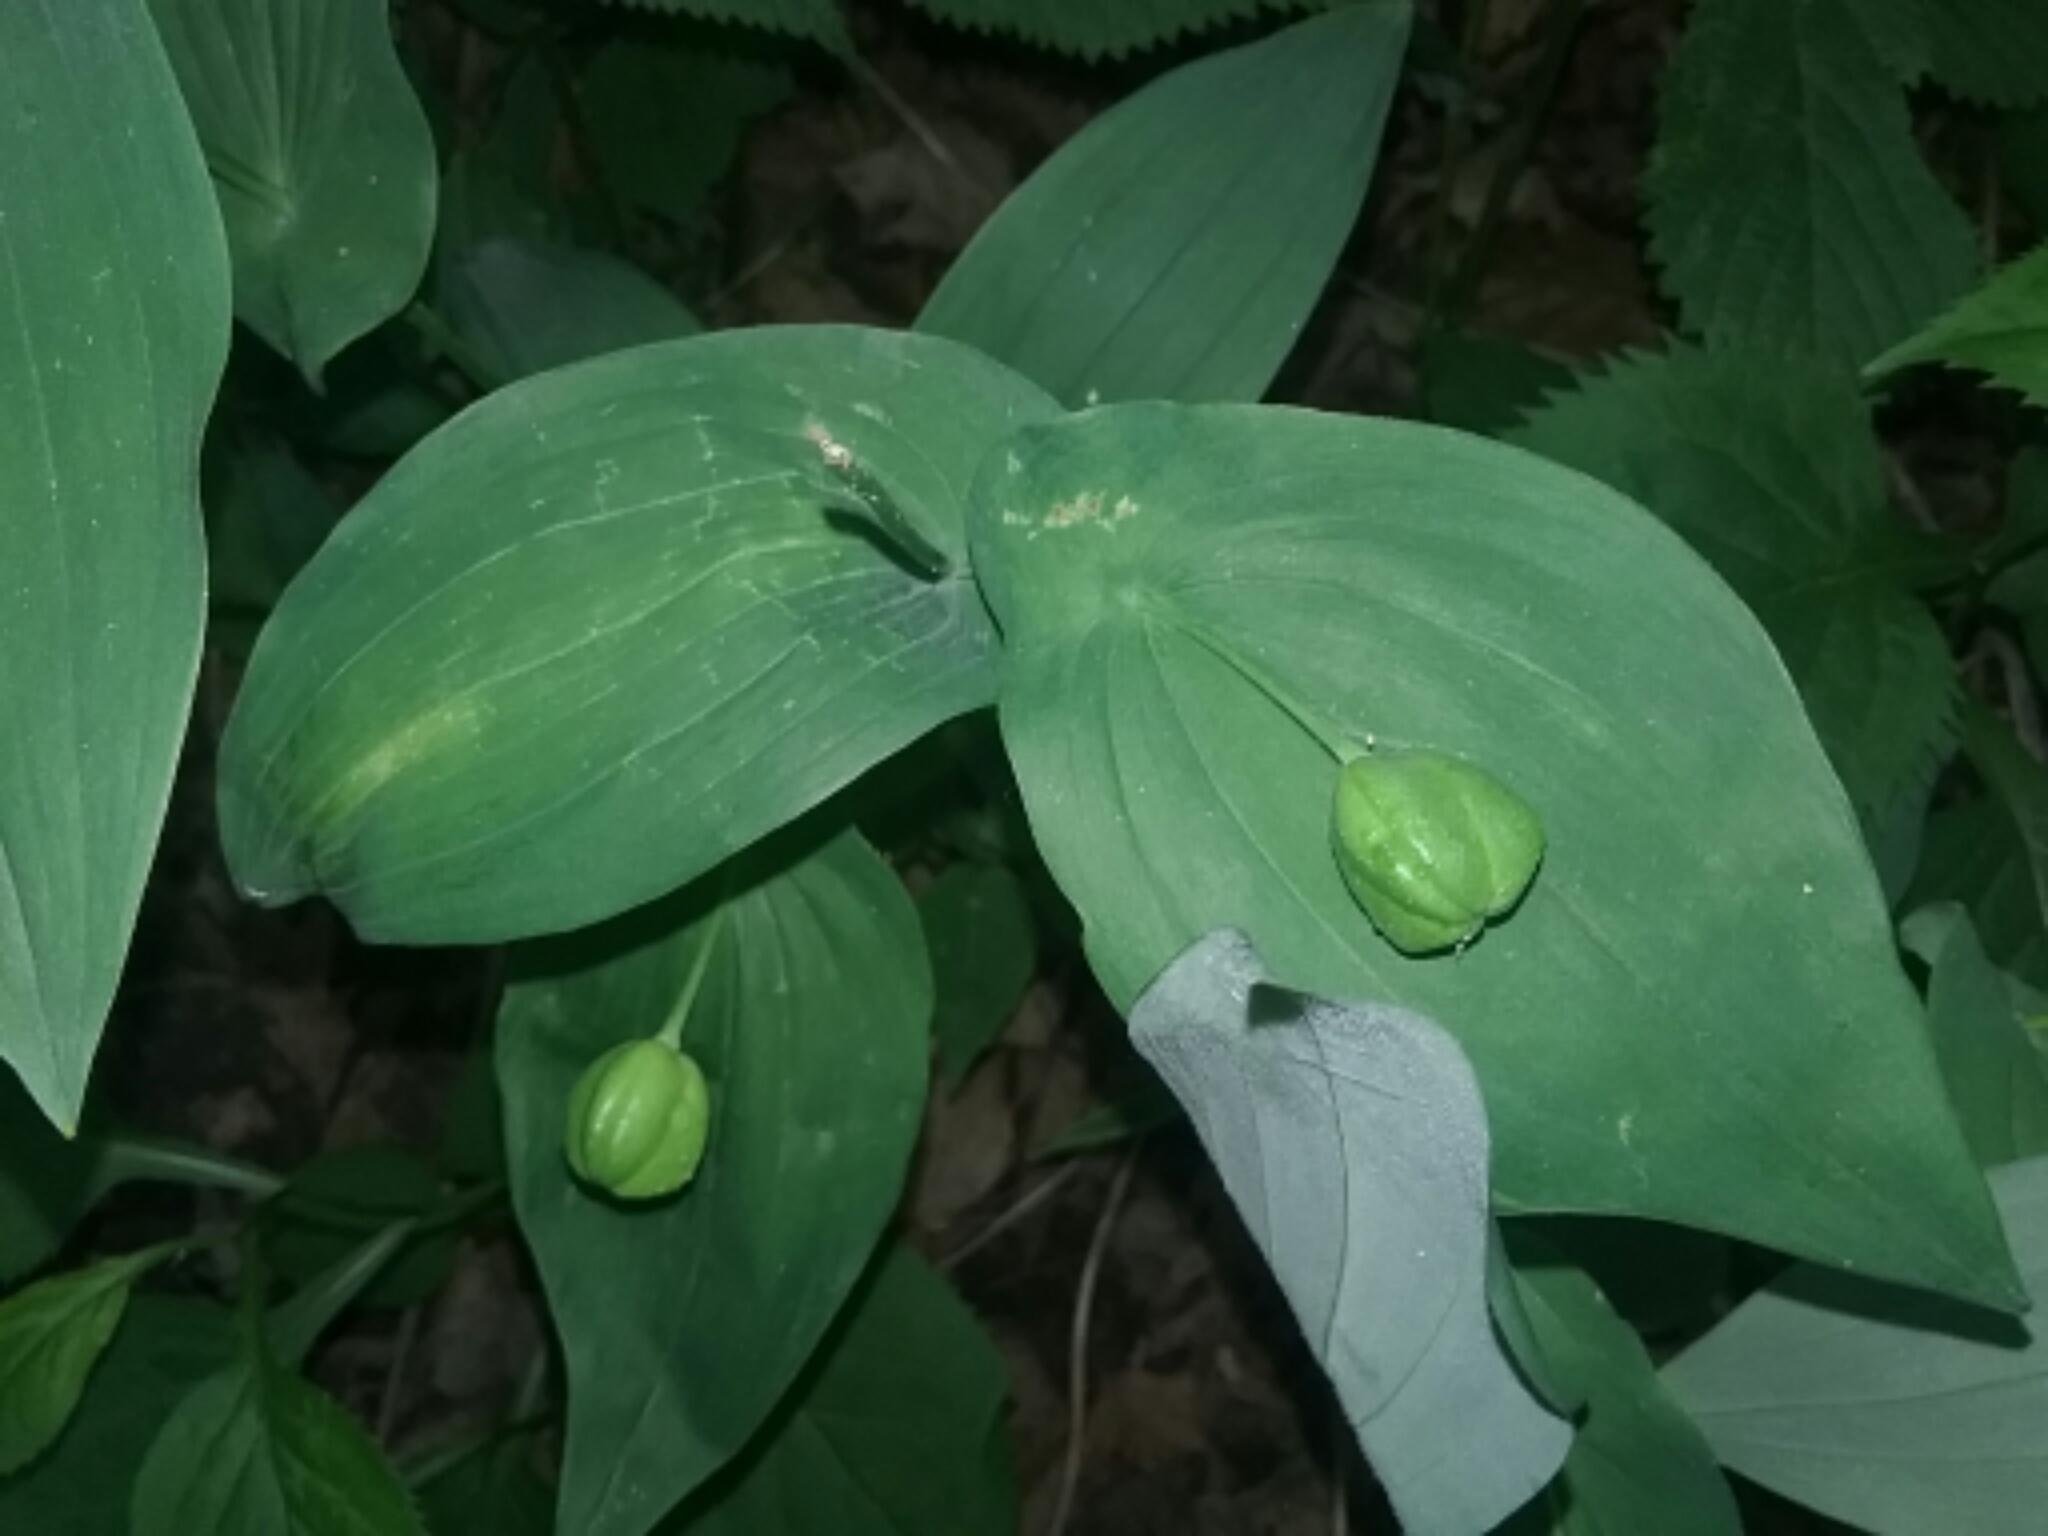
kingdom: Plantae
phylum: Tracheophyta
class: Liliopsida
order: Liliales
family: Colchicaceae
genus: Uvularia
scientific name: Uvularia grandiflora
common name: Bellwort
